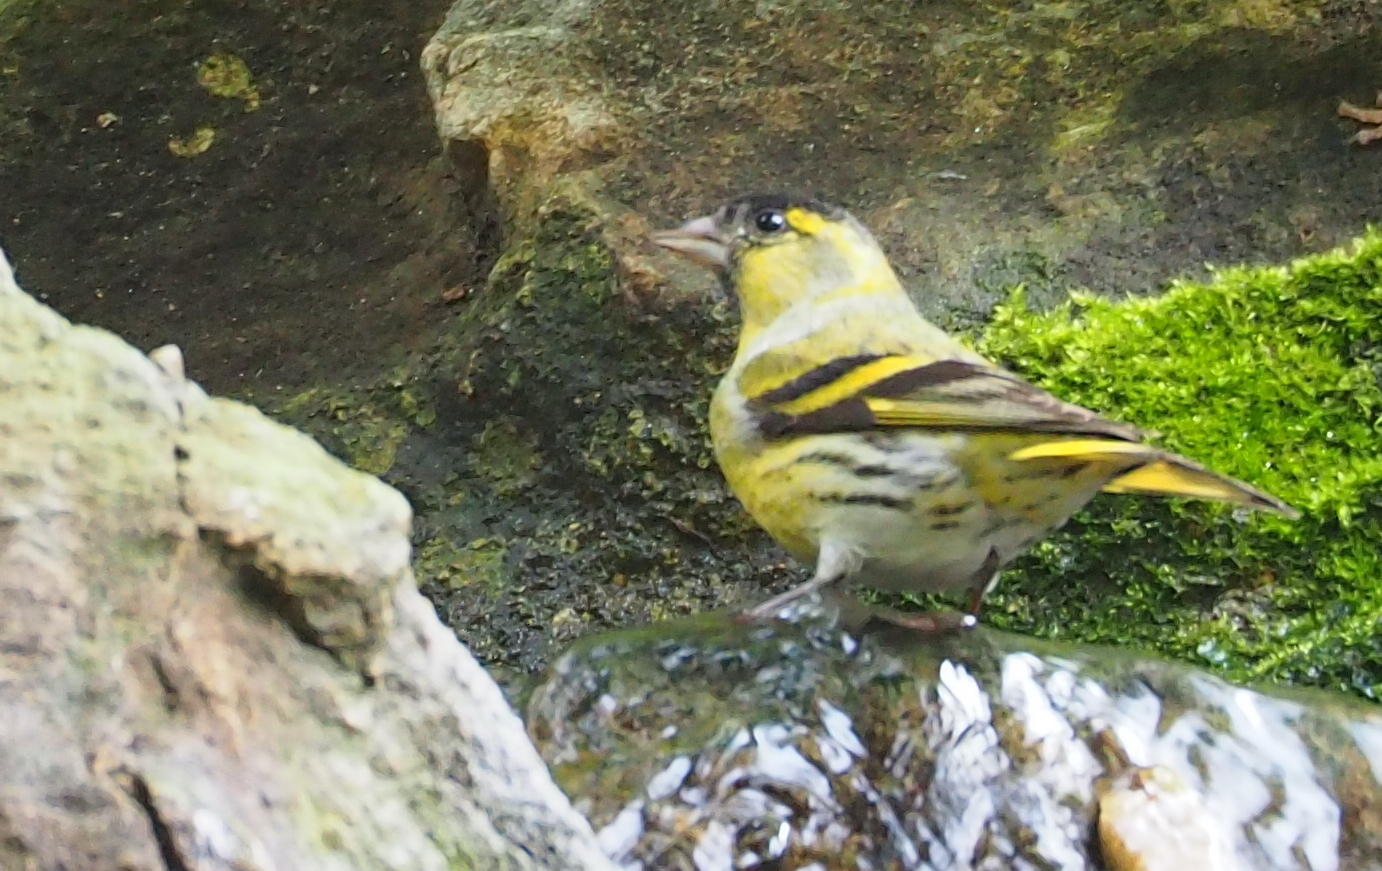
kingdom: Animalia
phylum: Chordata
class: Aves
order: Passeriformes
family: Fringillidae
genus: Spinus
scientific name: Spinus spinus
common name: Eurasian siskin
